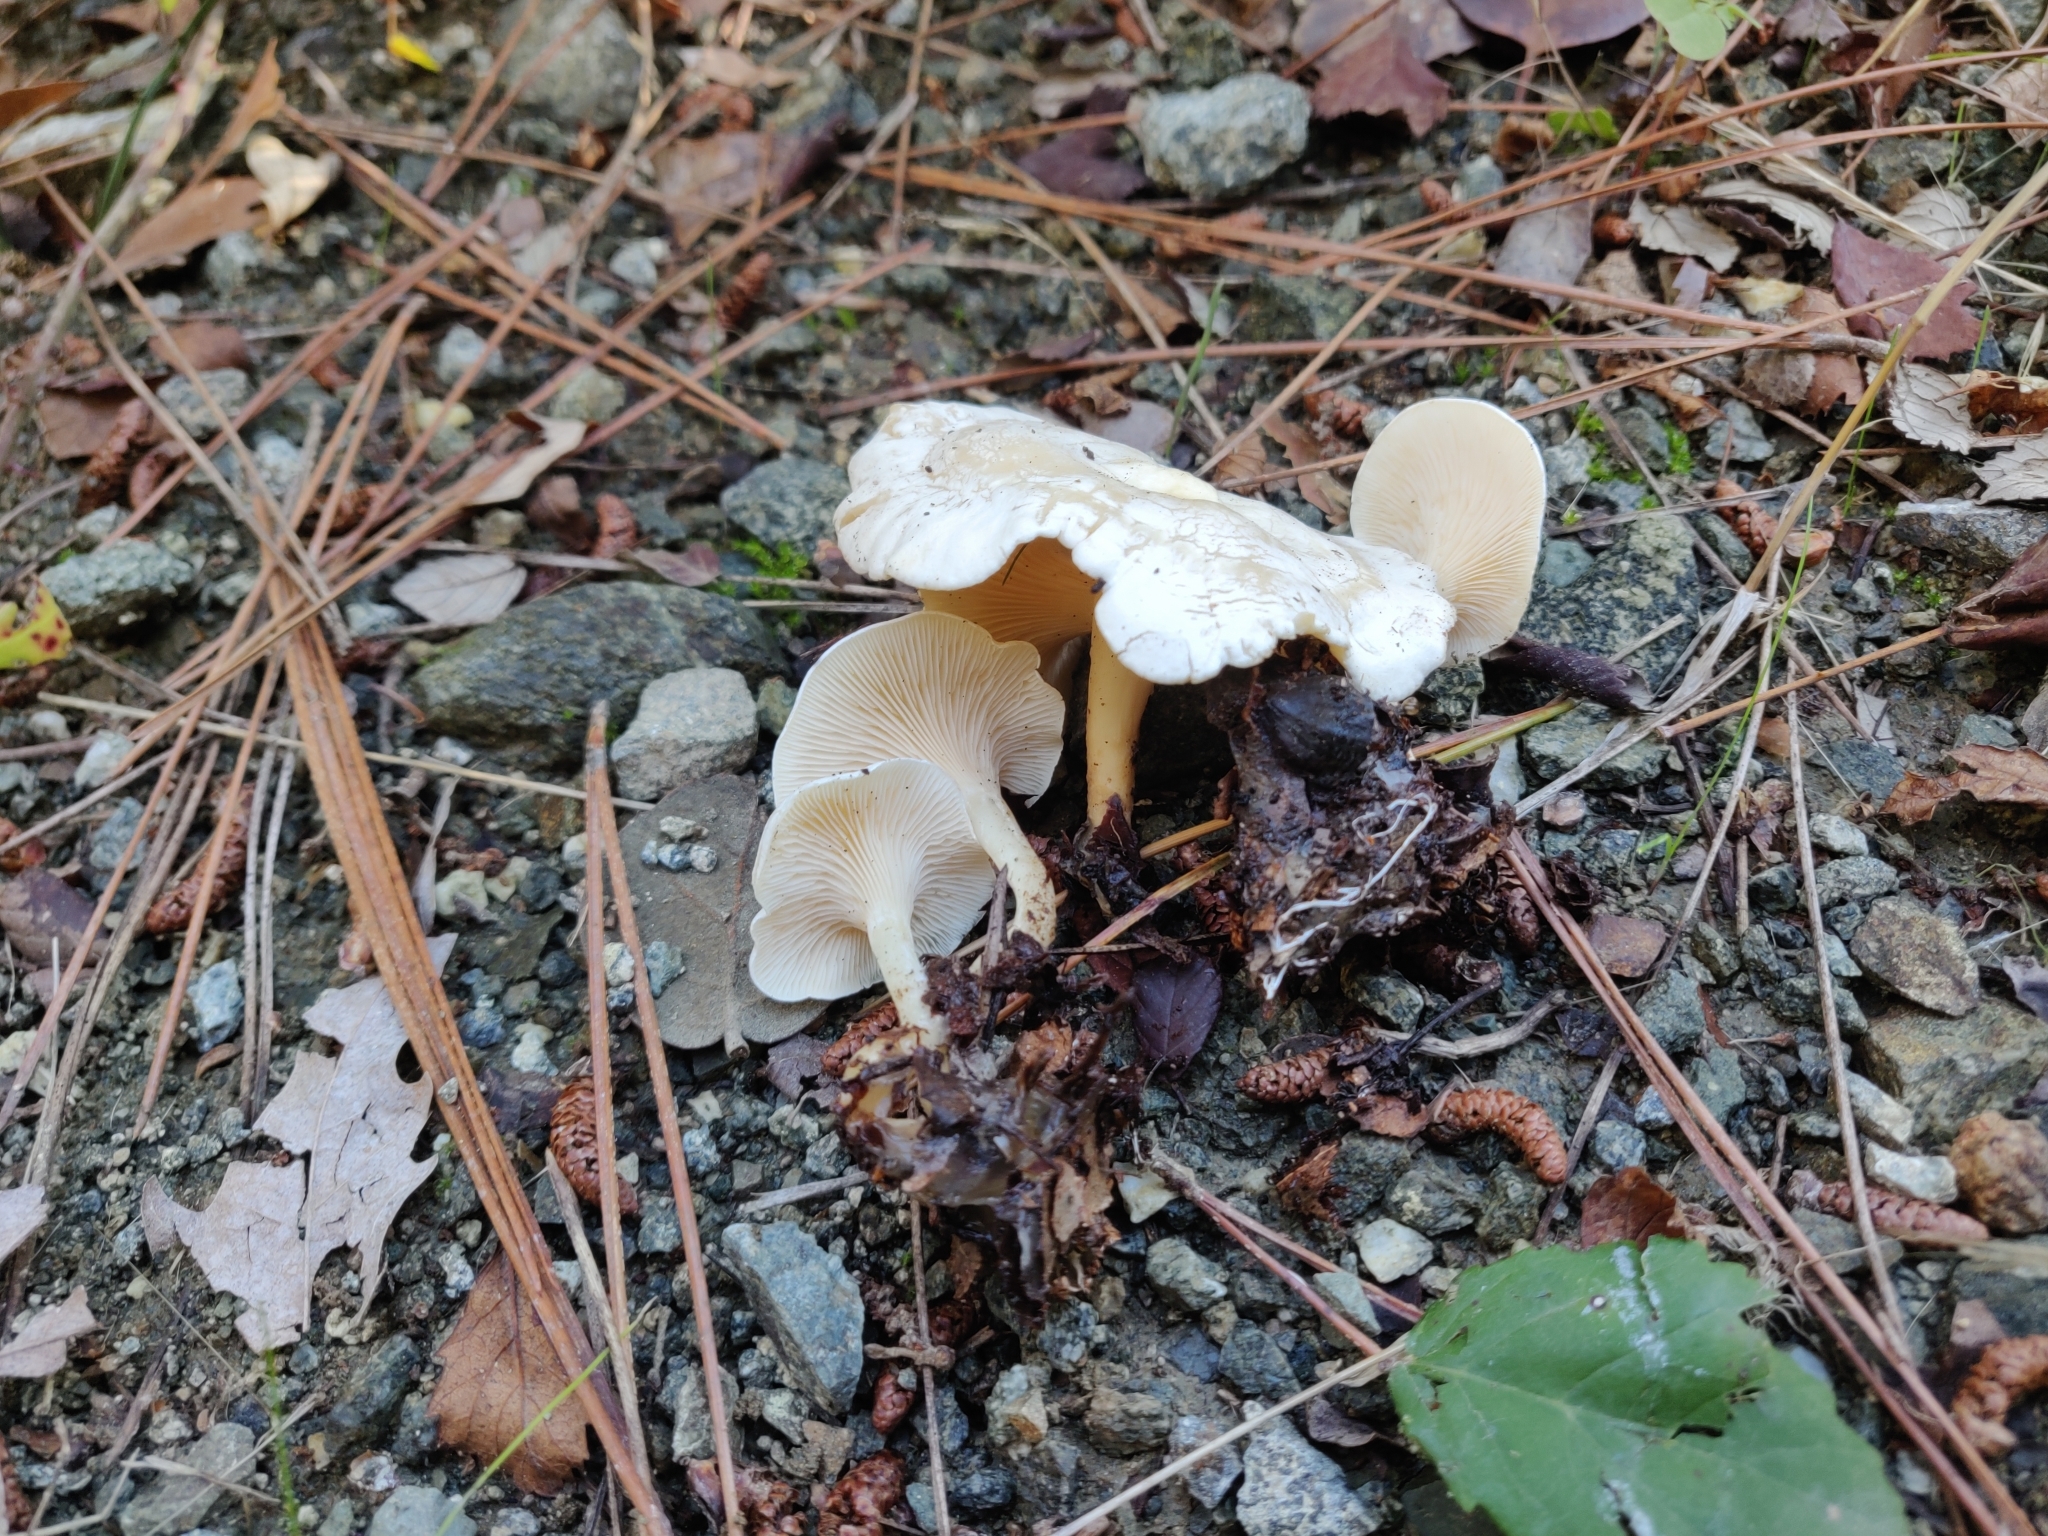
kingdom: Fungi
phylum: Basidiomycota
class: Agaricomycetes
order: Agaricales
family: Tricholomataceae
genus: Lulesia
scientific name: Lulesia
